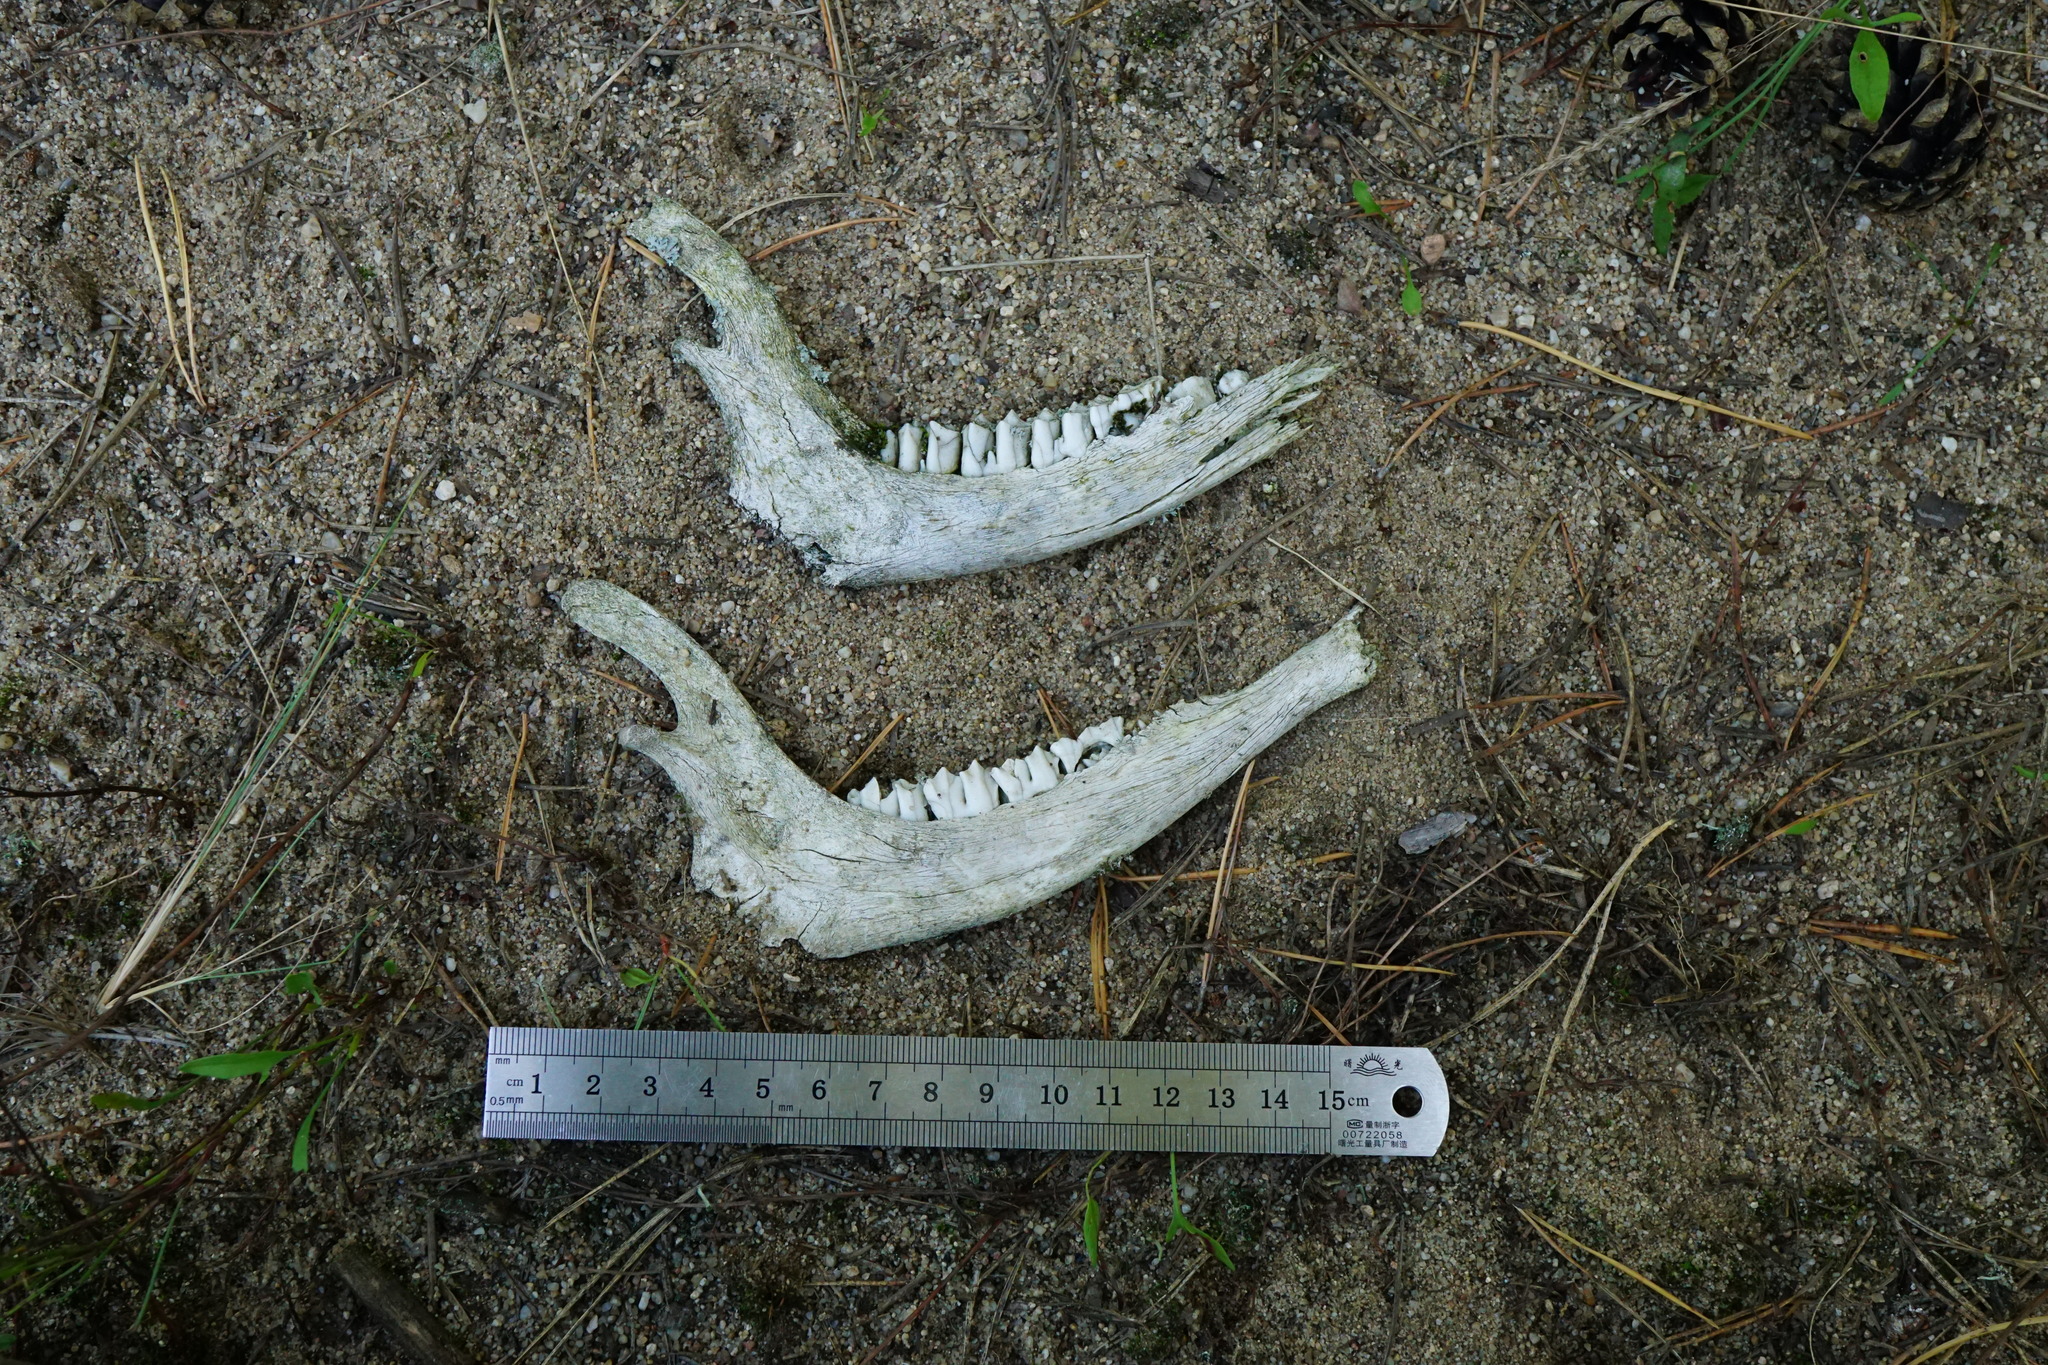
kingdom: Animalia
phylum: Chordata
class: Mammalia
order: Artiodactyla
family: Cervidae
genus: Capreolus
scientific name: Capreolus capreolus
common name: Western roe deer
